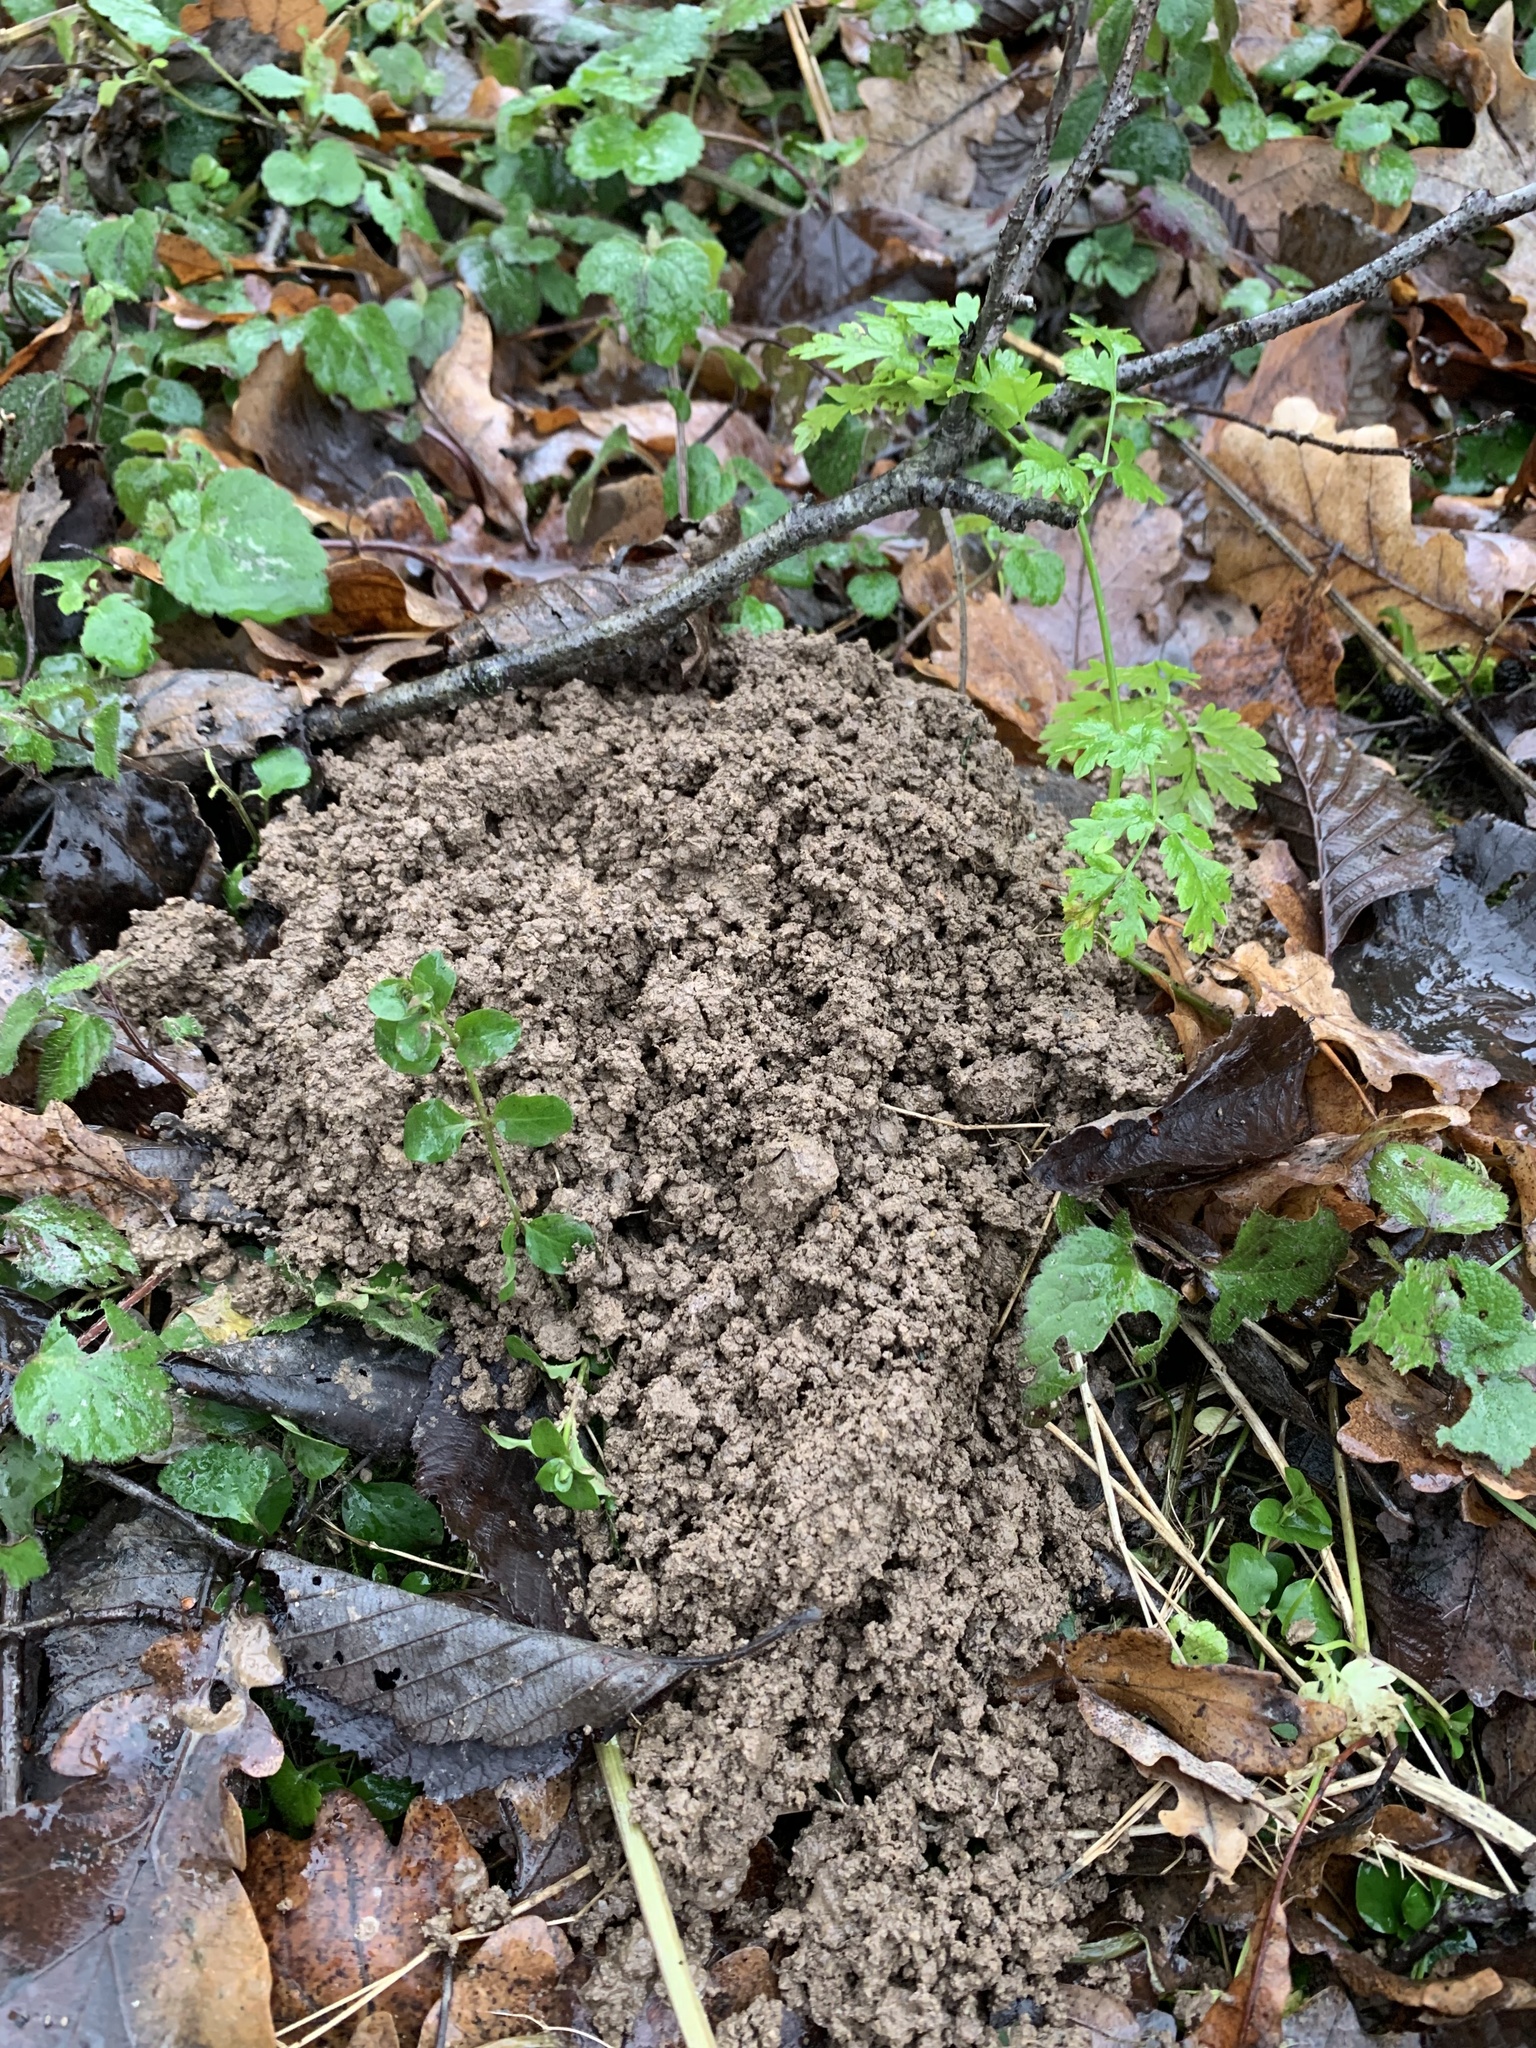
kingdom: Animalia
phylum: Chordata
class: Mammalia
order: Soricomorpha
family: Talpidae
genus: Talpa
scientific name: Talpa europaea
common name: European mole
